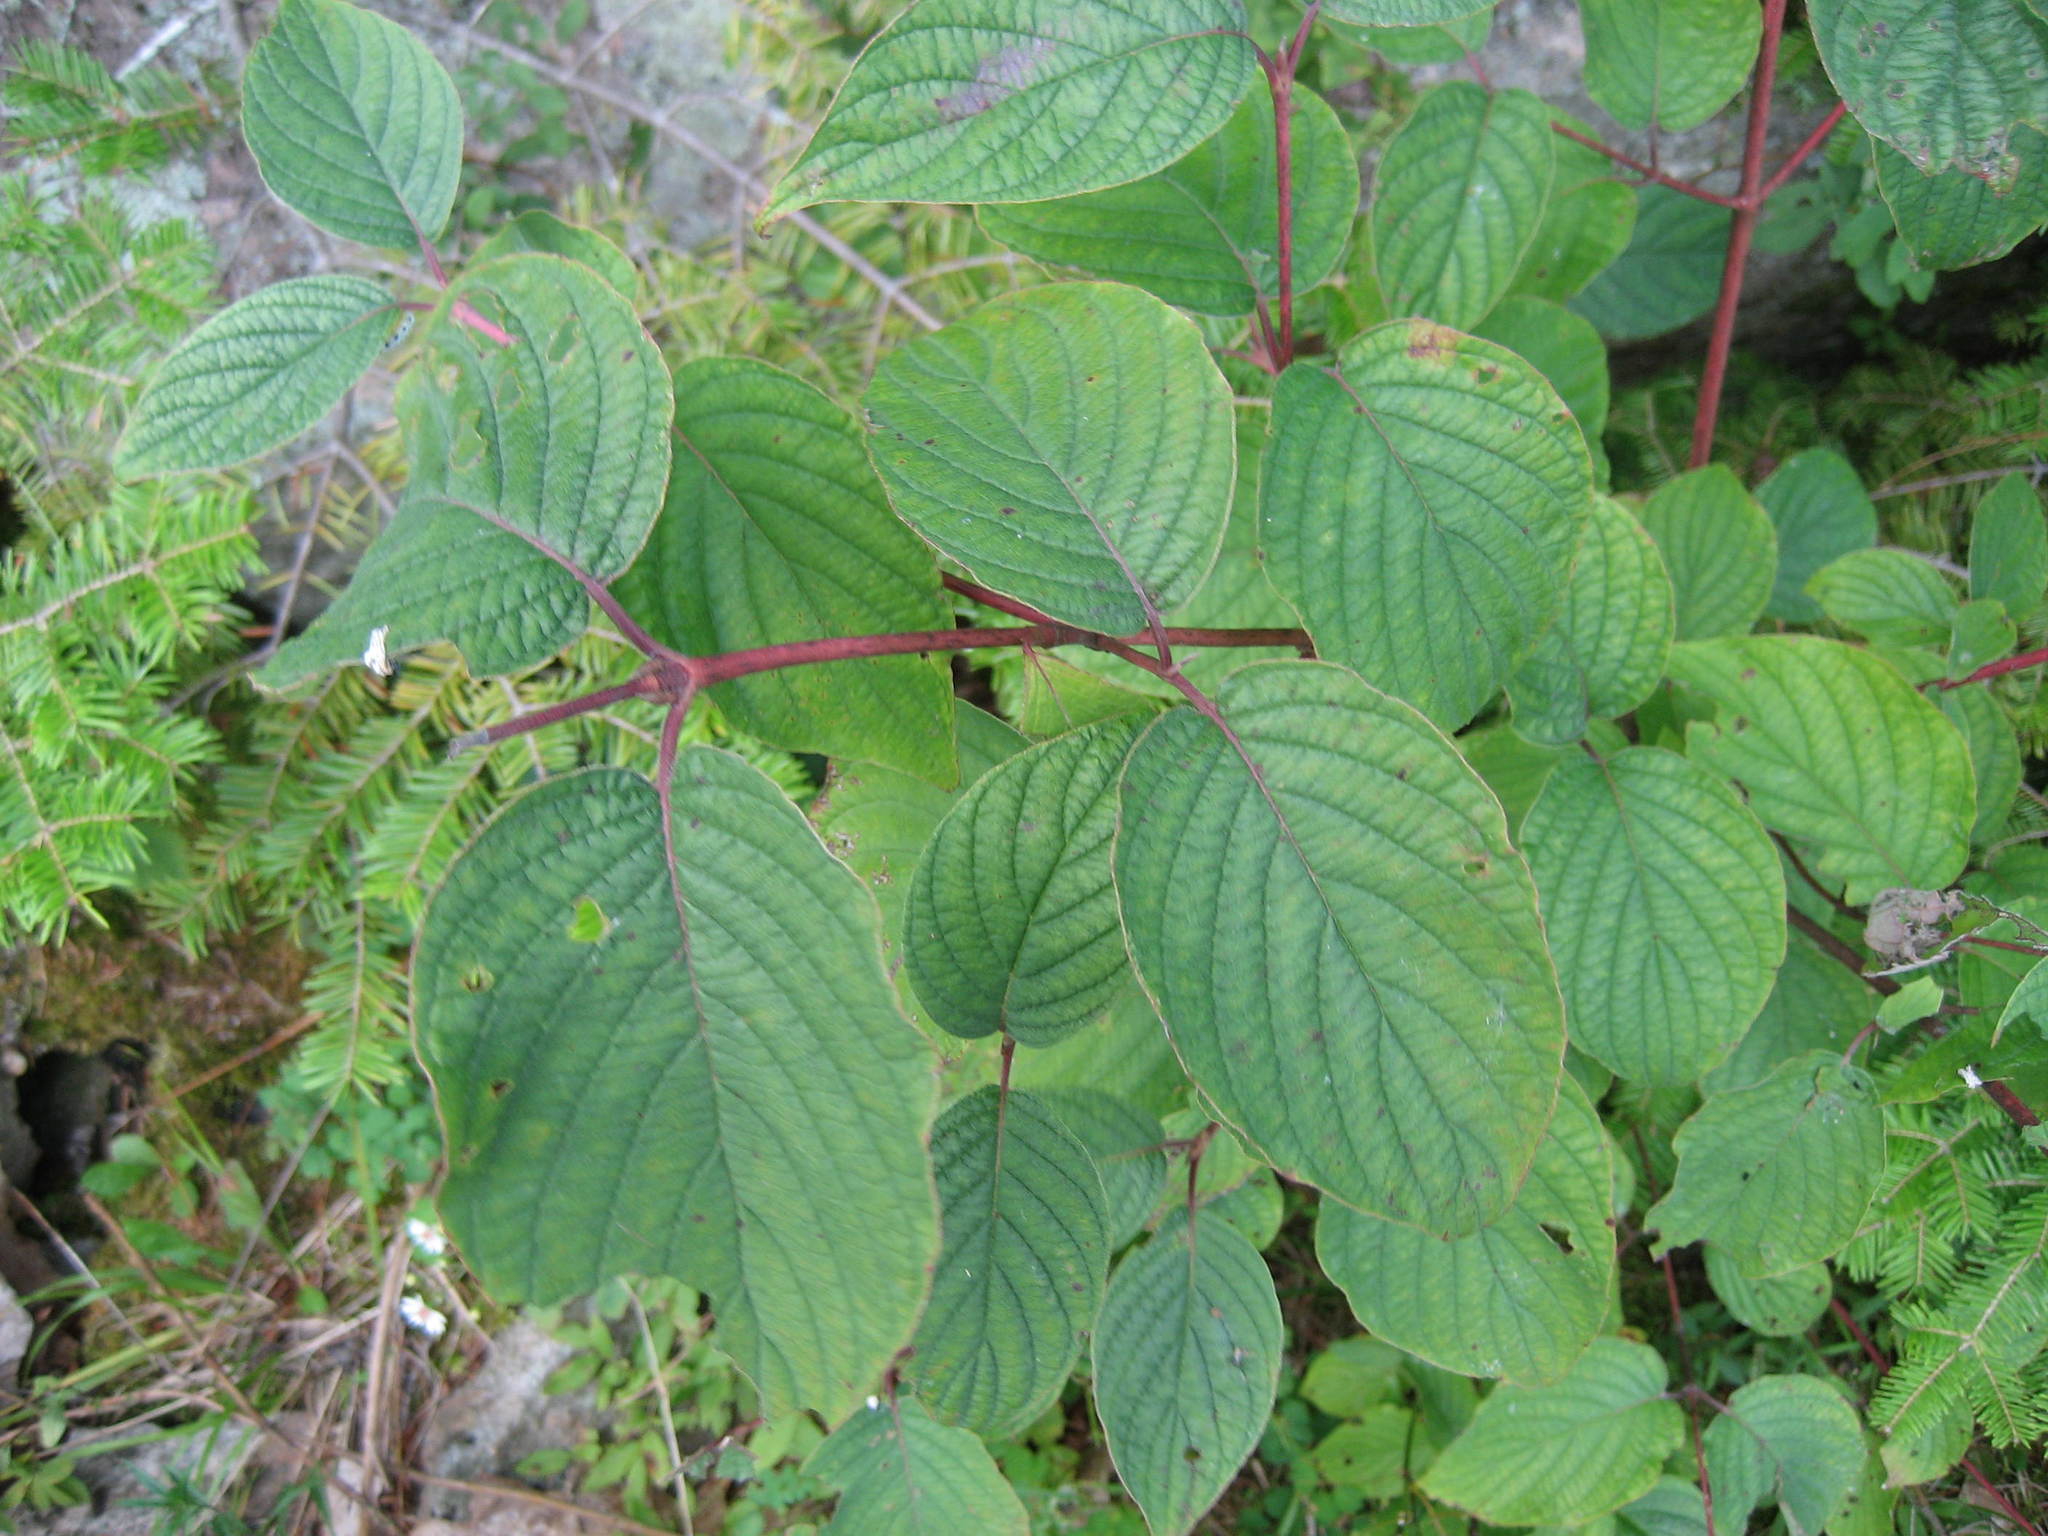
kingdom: Plantae
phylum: Tracheophyta
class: Magnoliopsida
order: Cornales
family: Cornaceae
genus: Cornus
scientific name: Cornus rugosa
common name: Round-leaf dogwood
